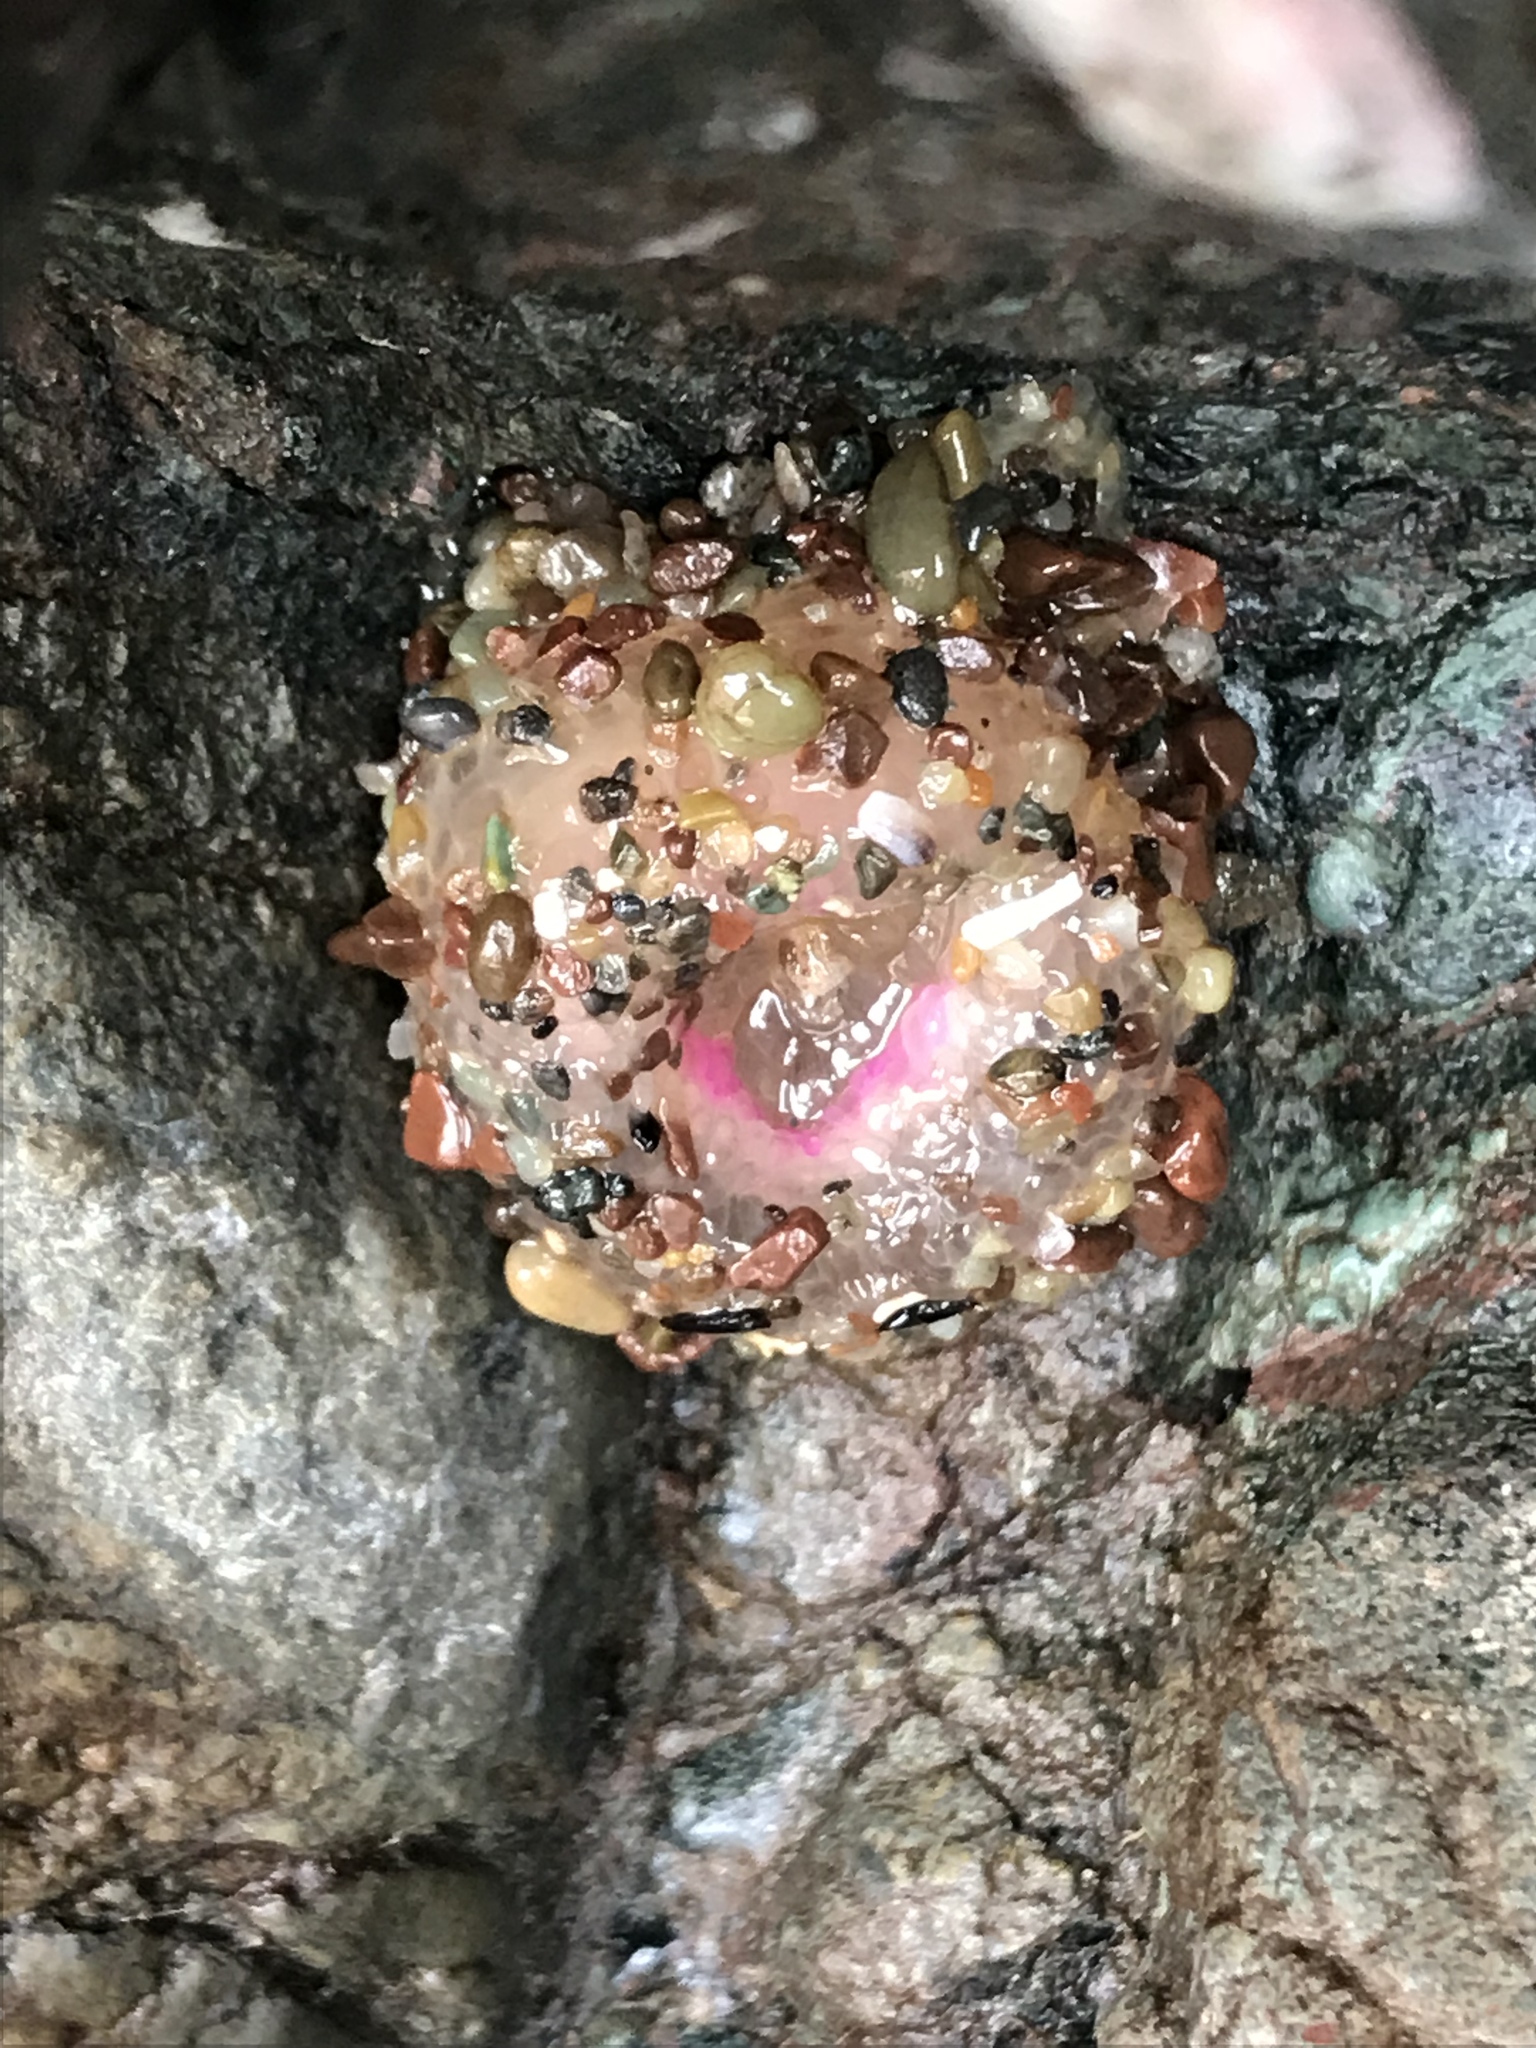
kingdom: Animalia
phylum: Cnidaria
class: Anthozoa
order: Actiniaria
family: Actiniidae
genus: Anthopleura
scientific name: Anthopleura elegantissima
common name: Clonal anemone
